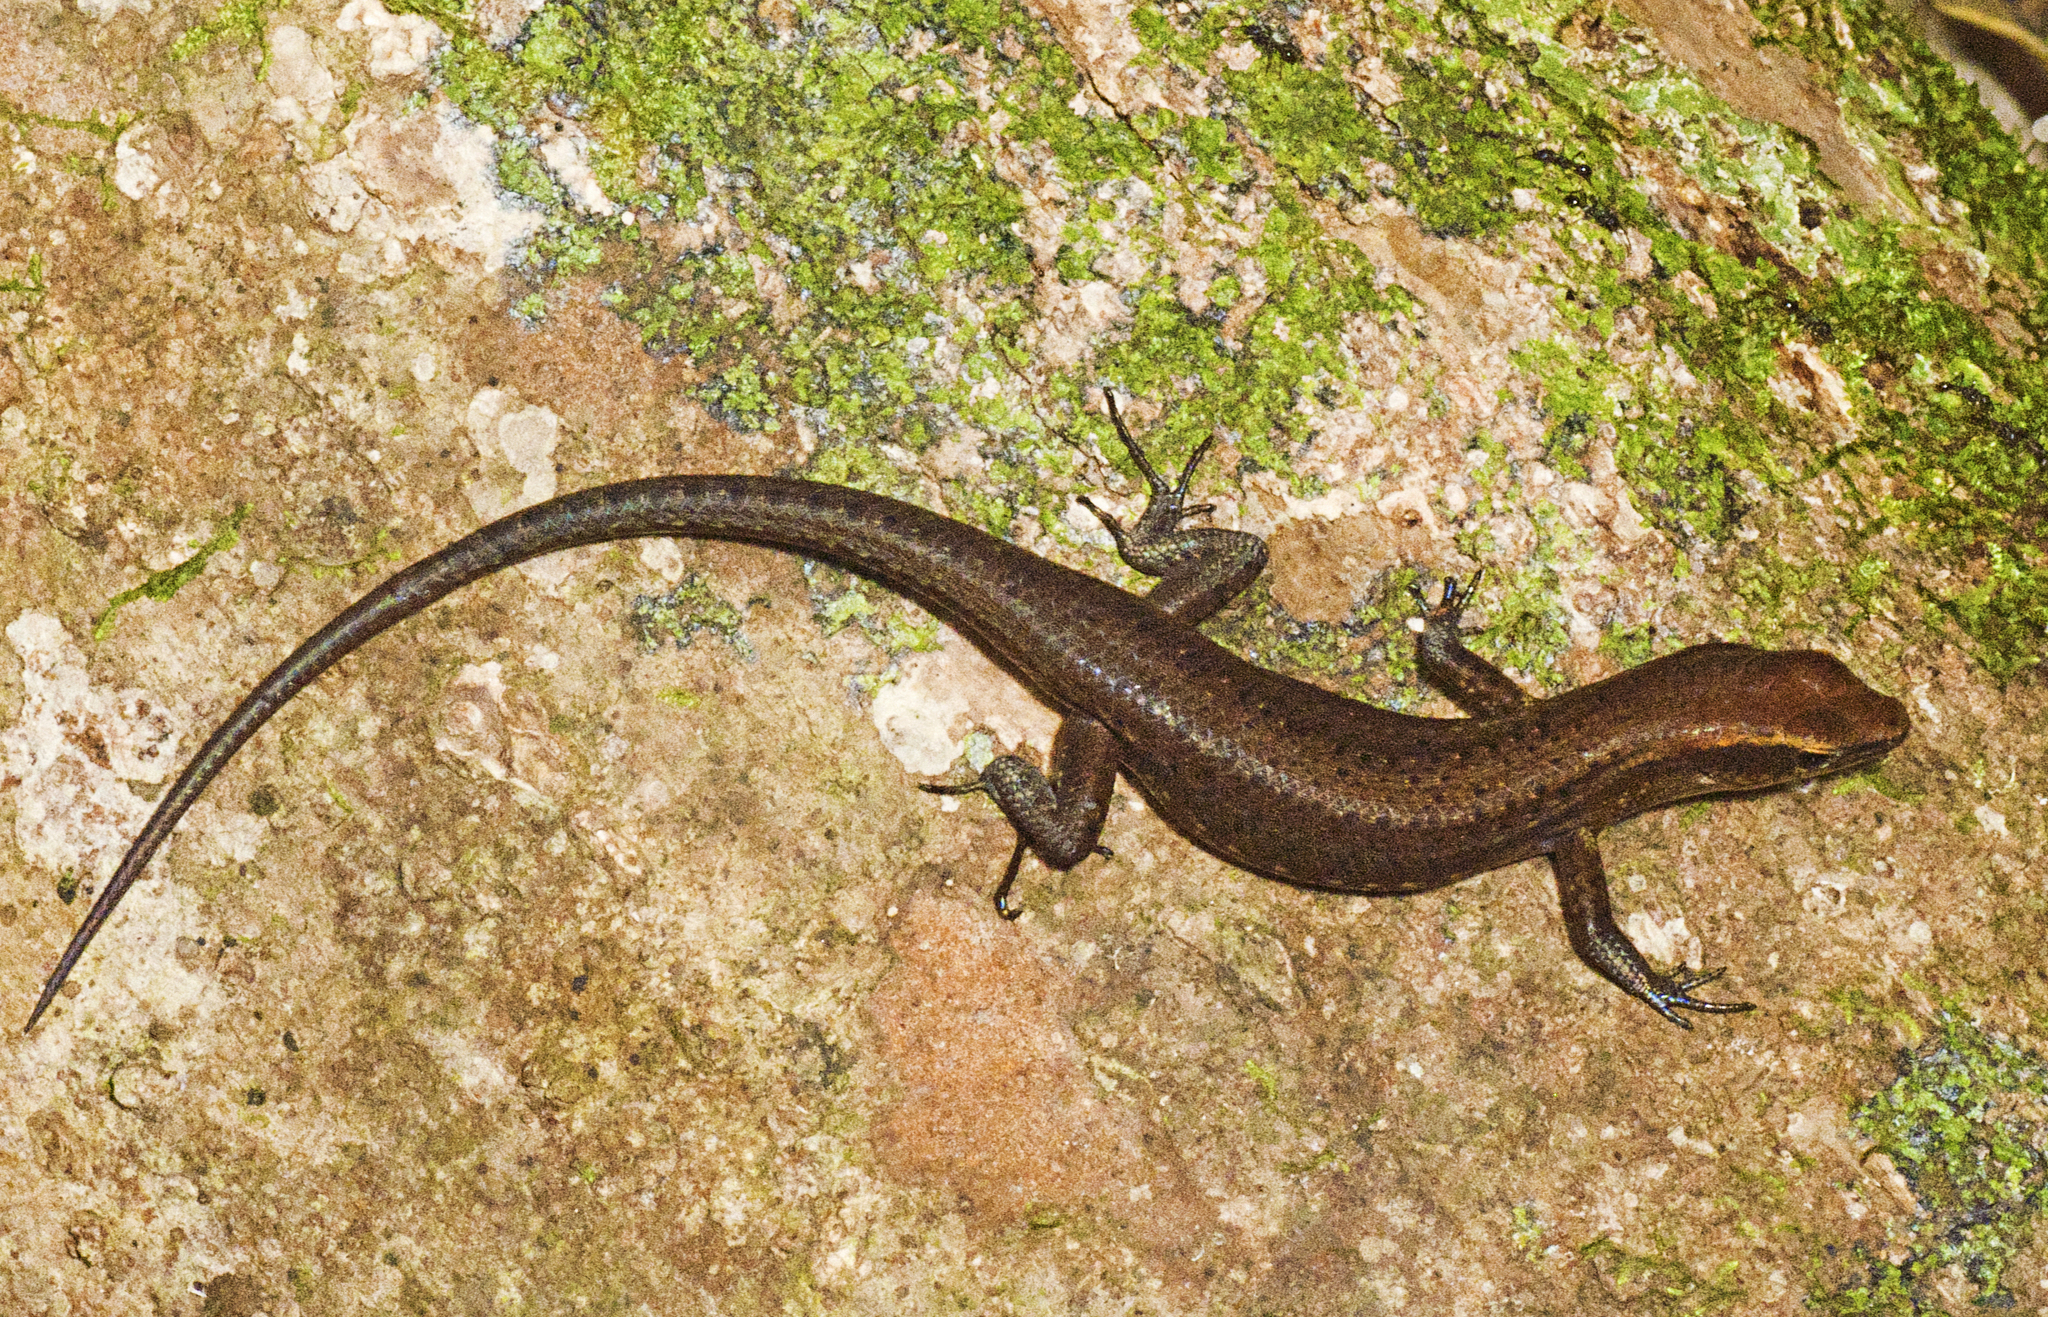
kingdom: Animalia
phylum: Chordata
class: Squamata
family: Scincidae
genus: Carlia
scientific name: Carlia crypta
